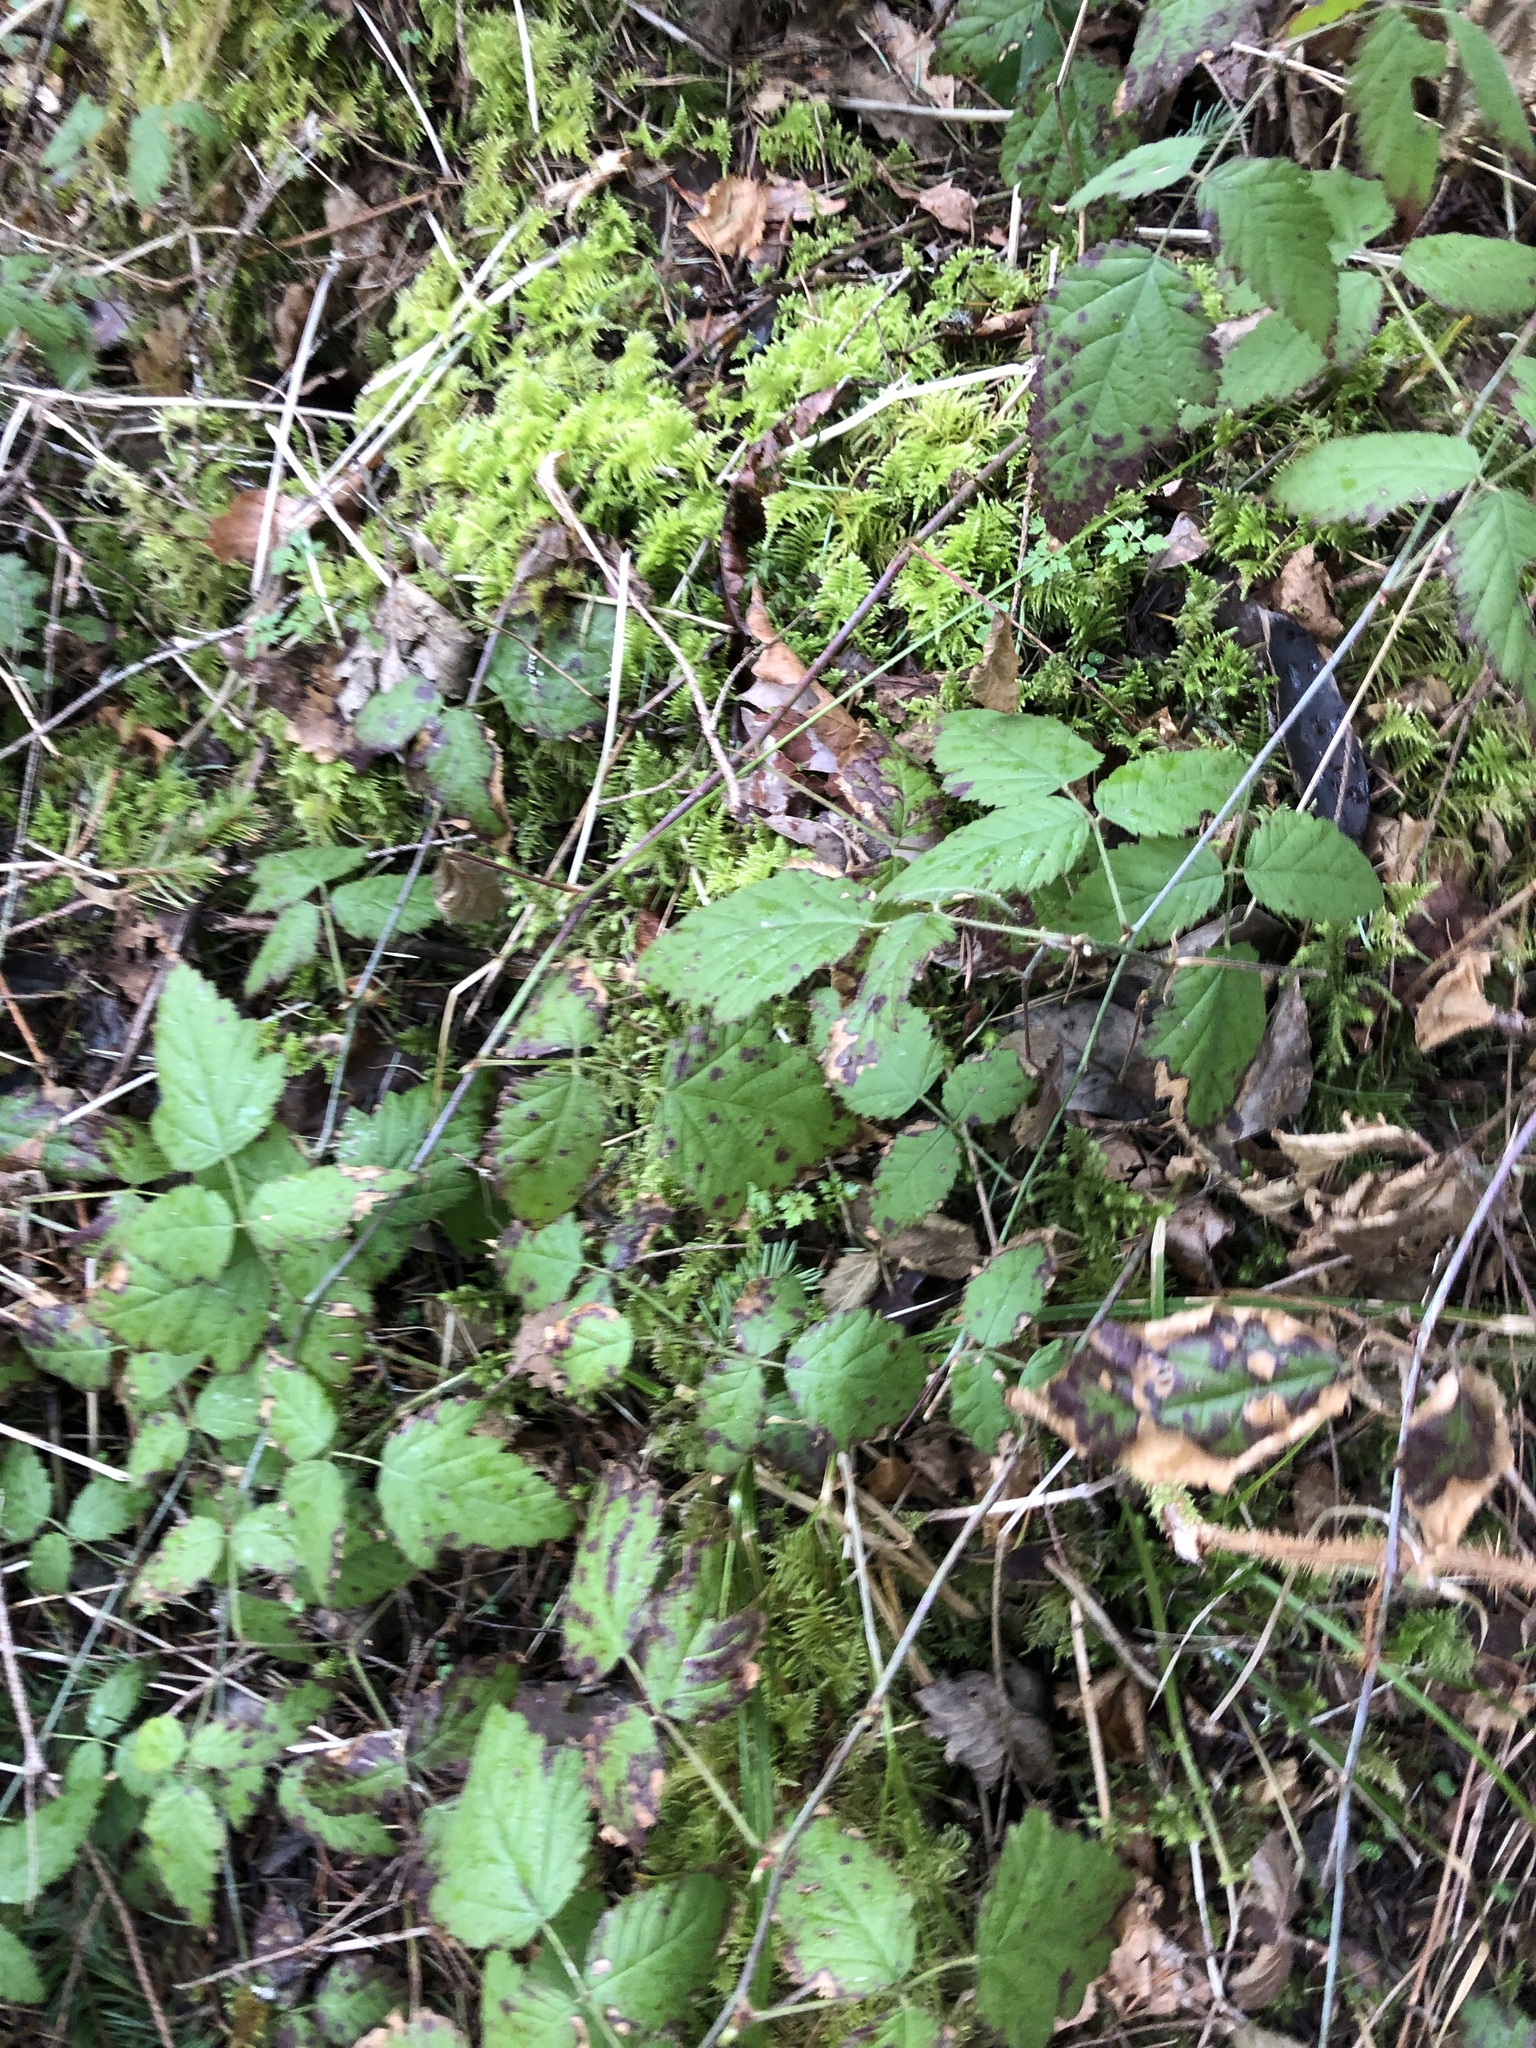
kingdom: Plantae
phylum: Tracheophyta
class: Magnoliopsida
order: Rosales
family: Rosaceae
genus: Rubus
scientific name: Rubus ursinus
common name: Pacific blackberry
